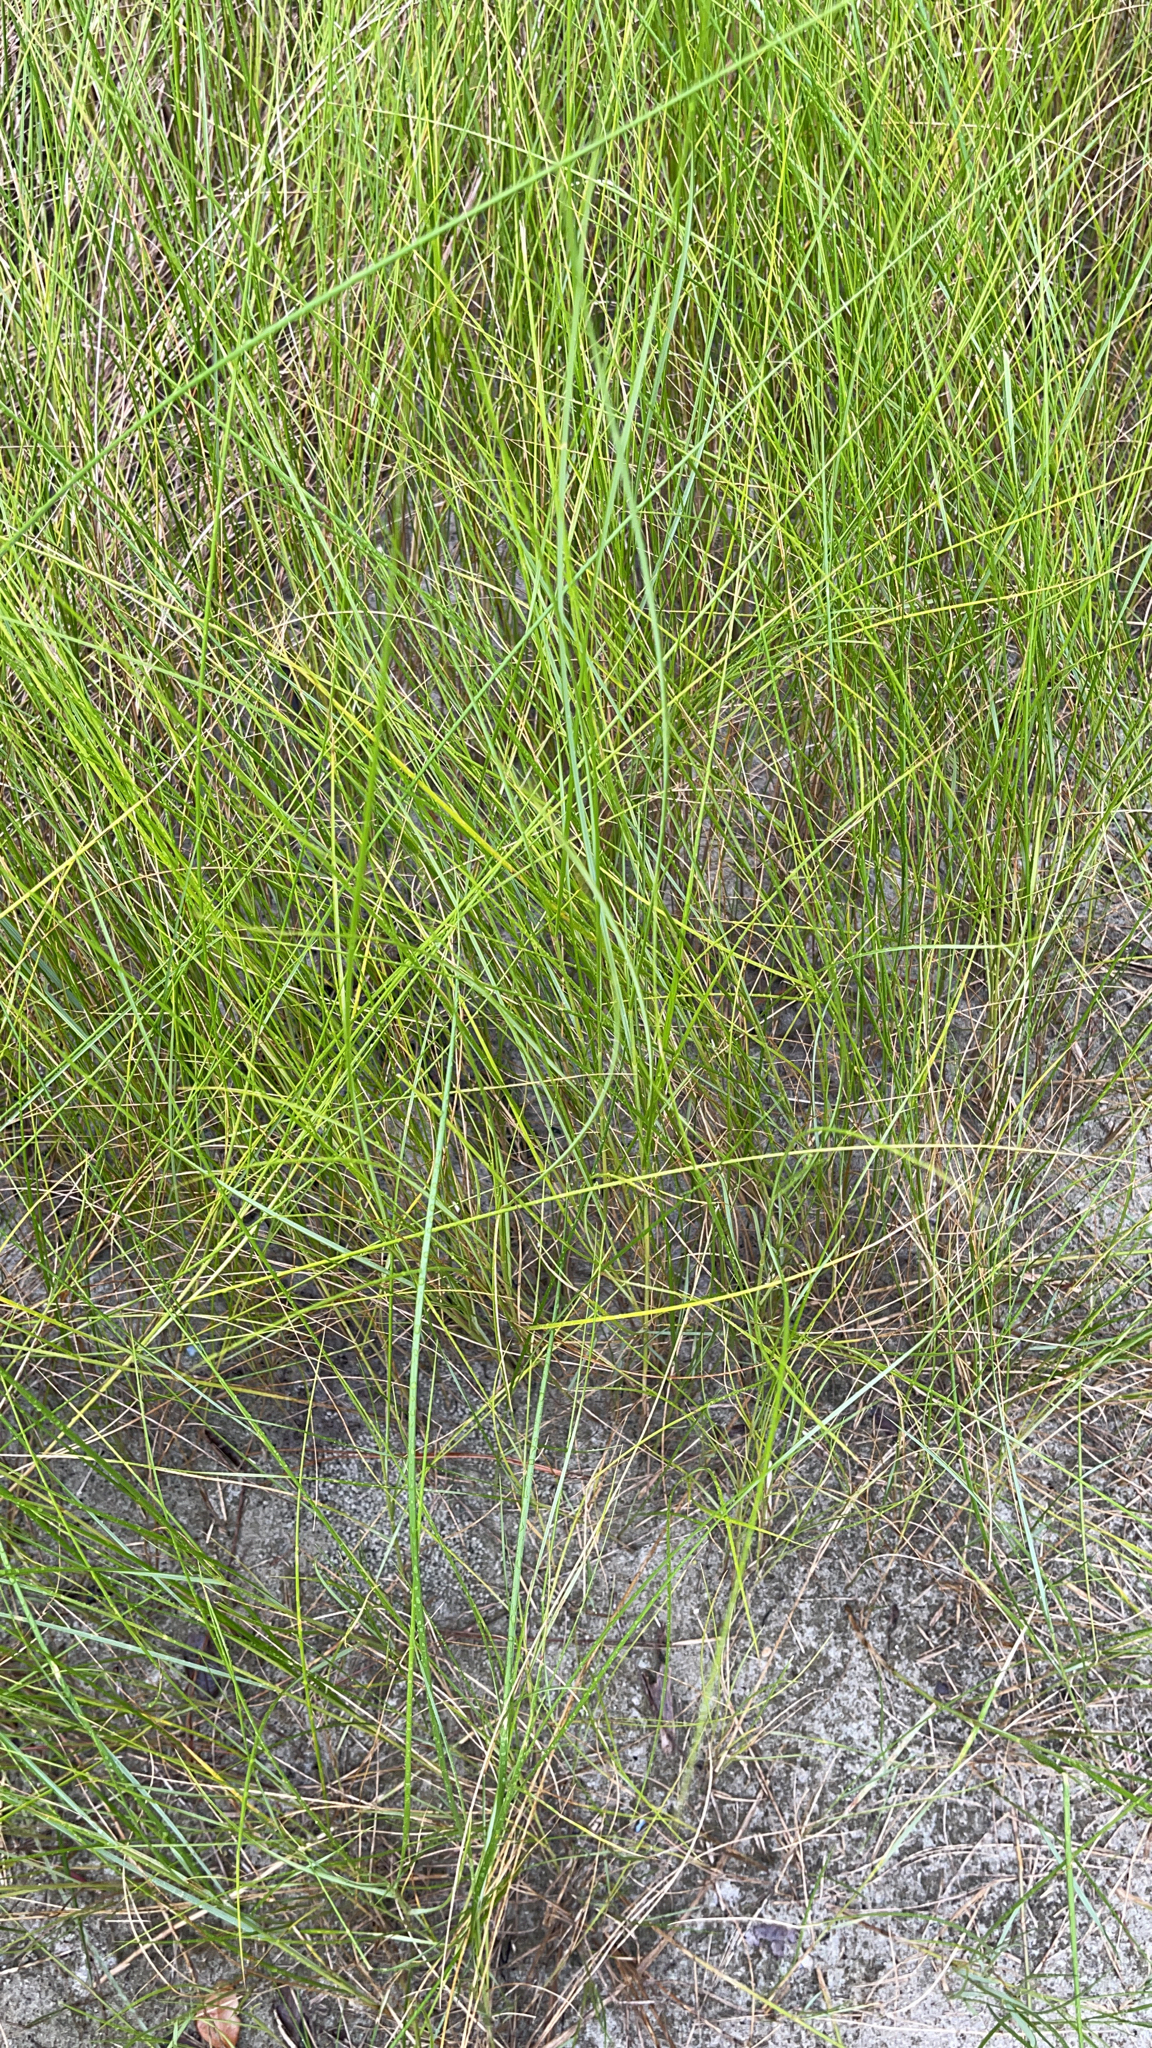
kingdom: Plantae
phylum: Tracheophyta
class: Liliopsida
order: Poales
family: Poaceae
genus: Sporobolus
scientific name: Sporobolus pumilus
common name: Highwater grass
